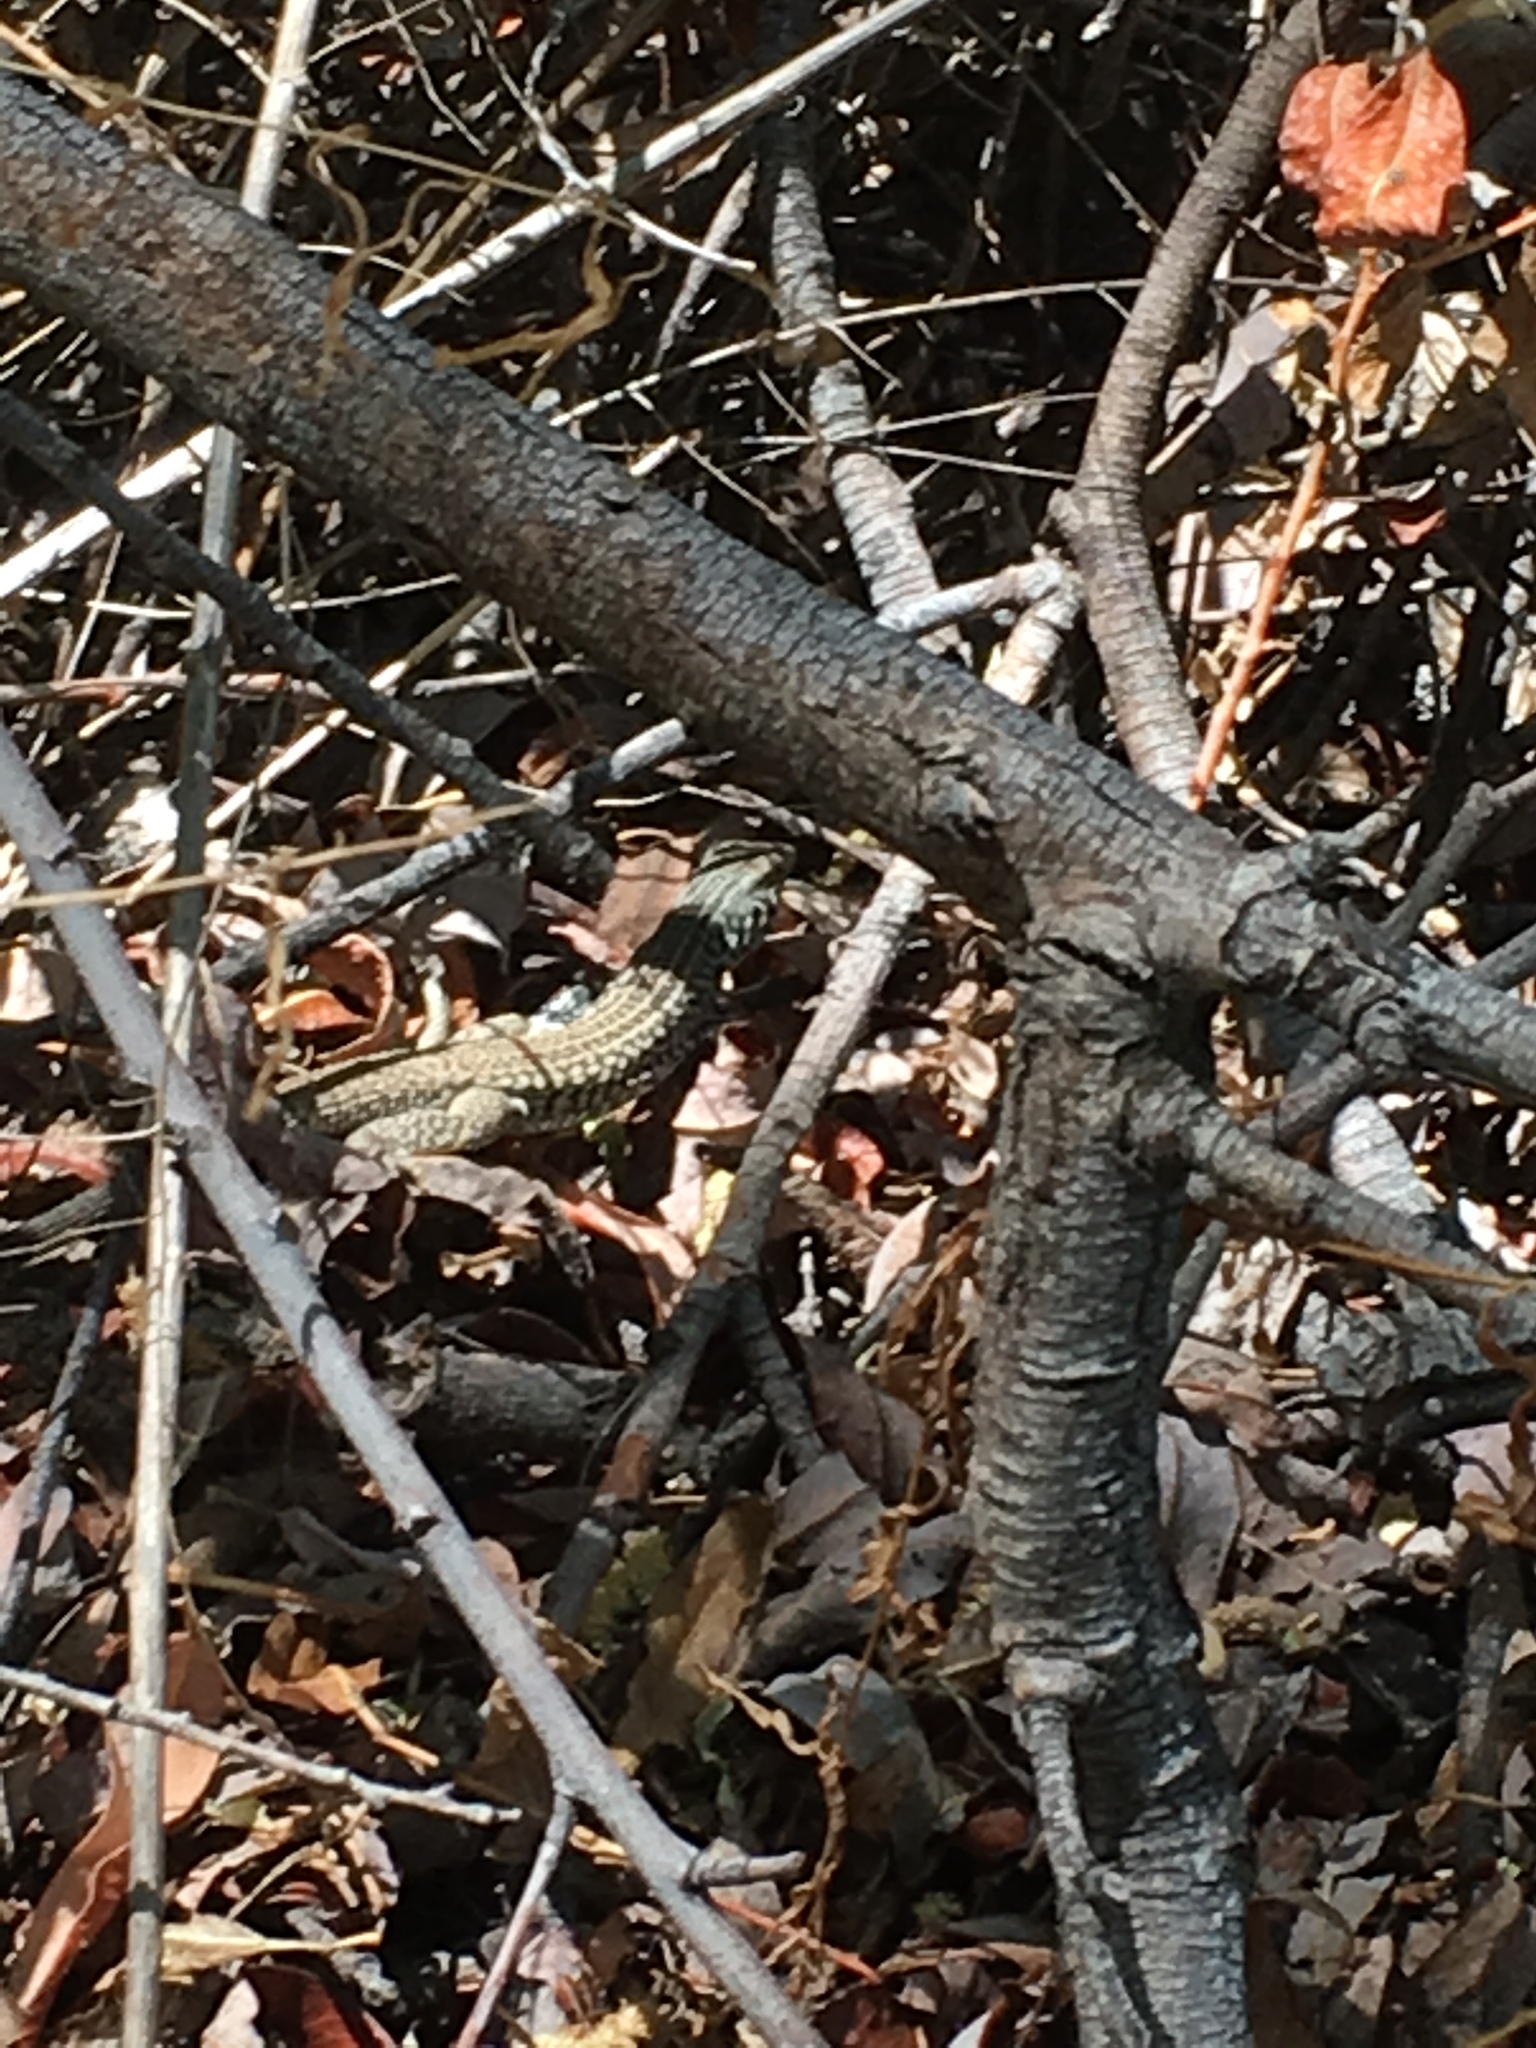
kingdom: Animalia
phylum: Chordata
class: Squamata
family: Teiidae
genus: Aspidoscelis
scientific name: Aspidoscelis tigris
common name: Tiger whiptail
